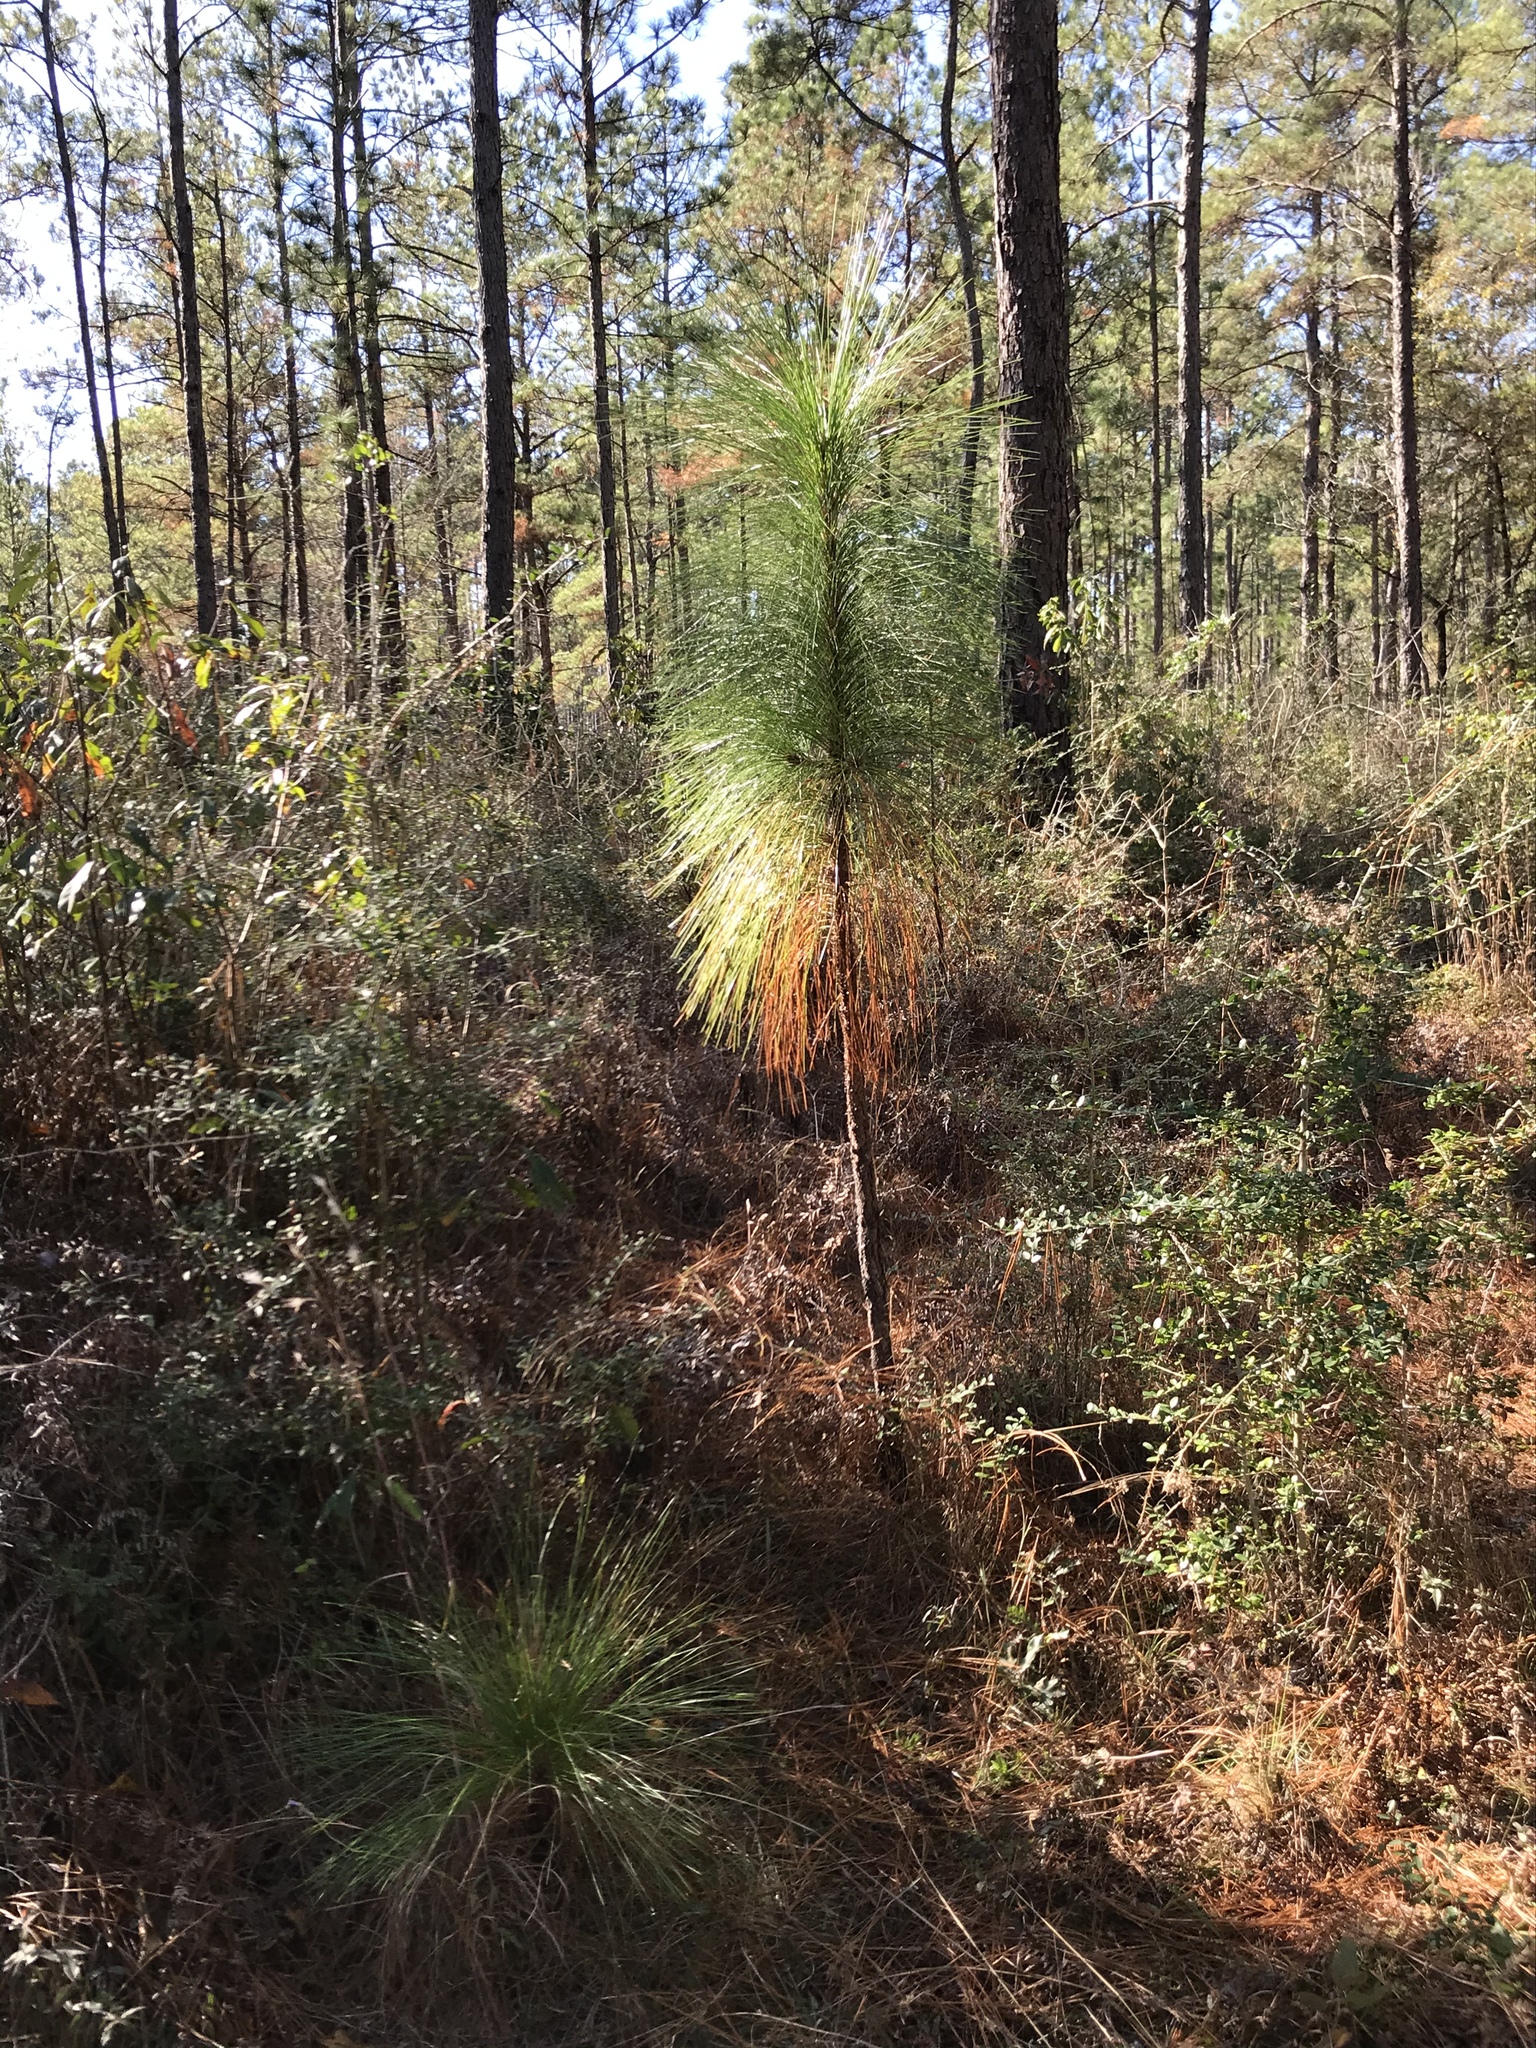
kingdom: Plantae
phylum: Tracheophyta
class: Pinopsida
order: Pinales
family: Pinaceae
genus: Pinus
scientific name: Pinus palustris
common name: Longleaf pine
